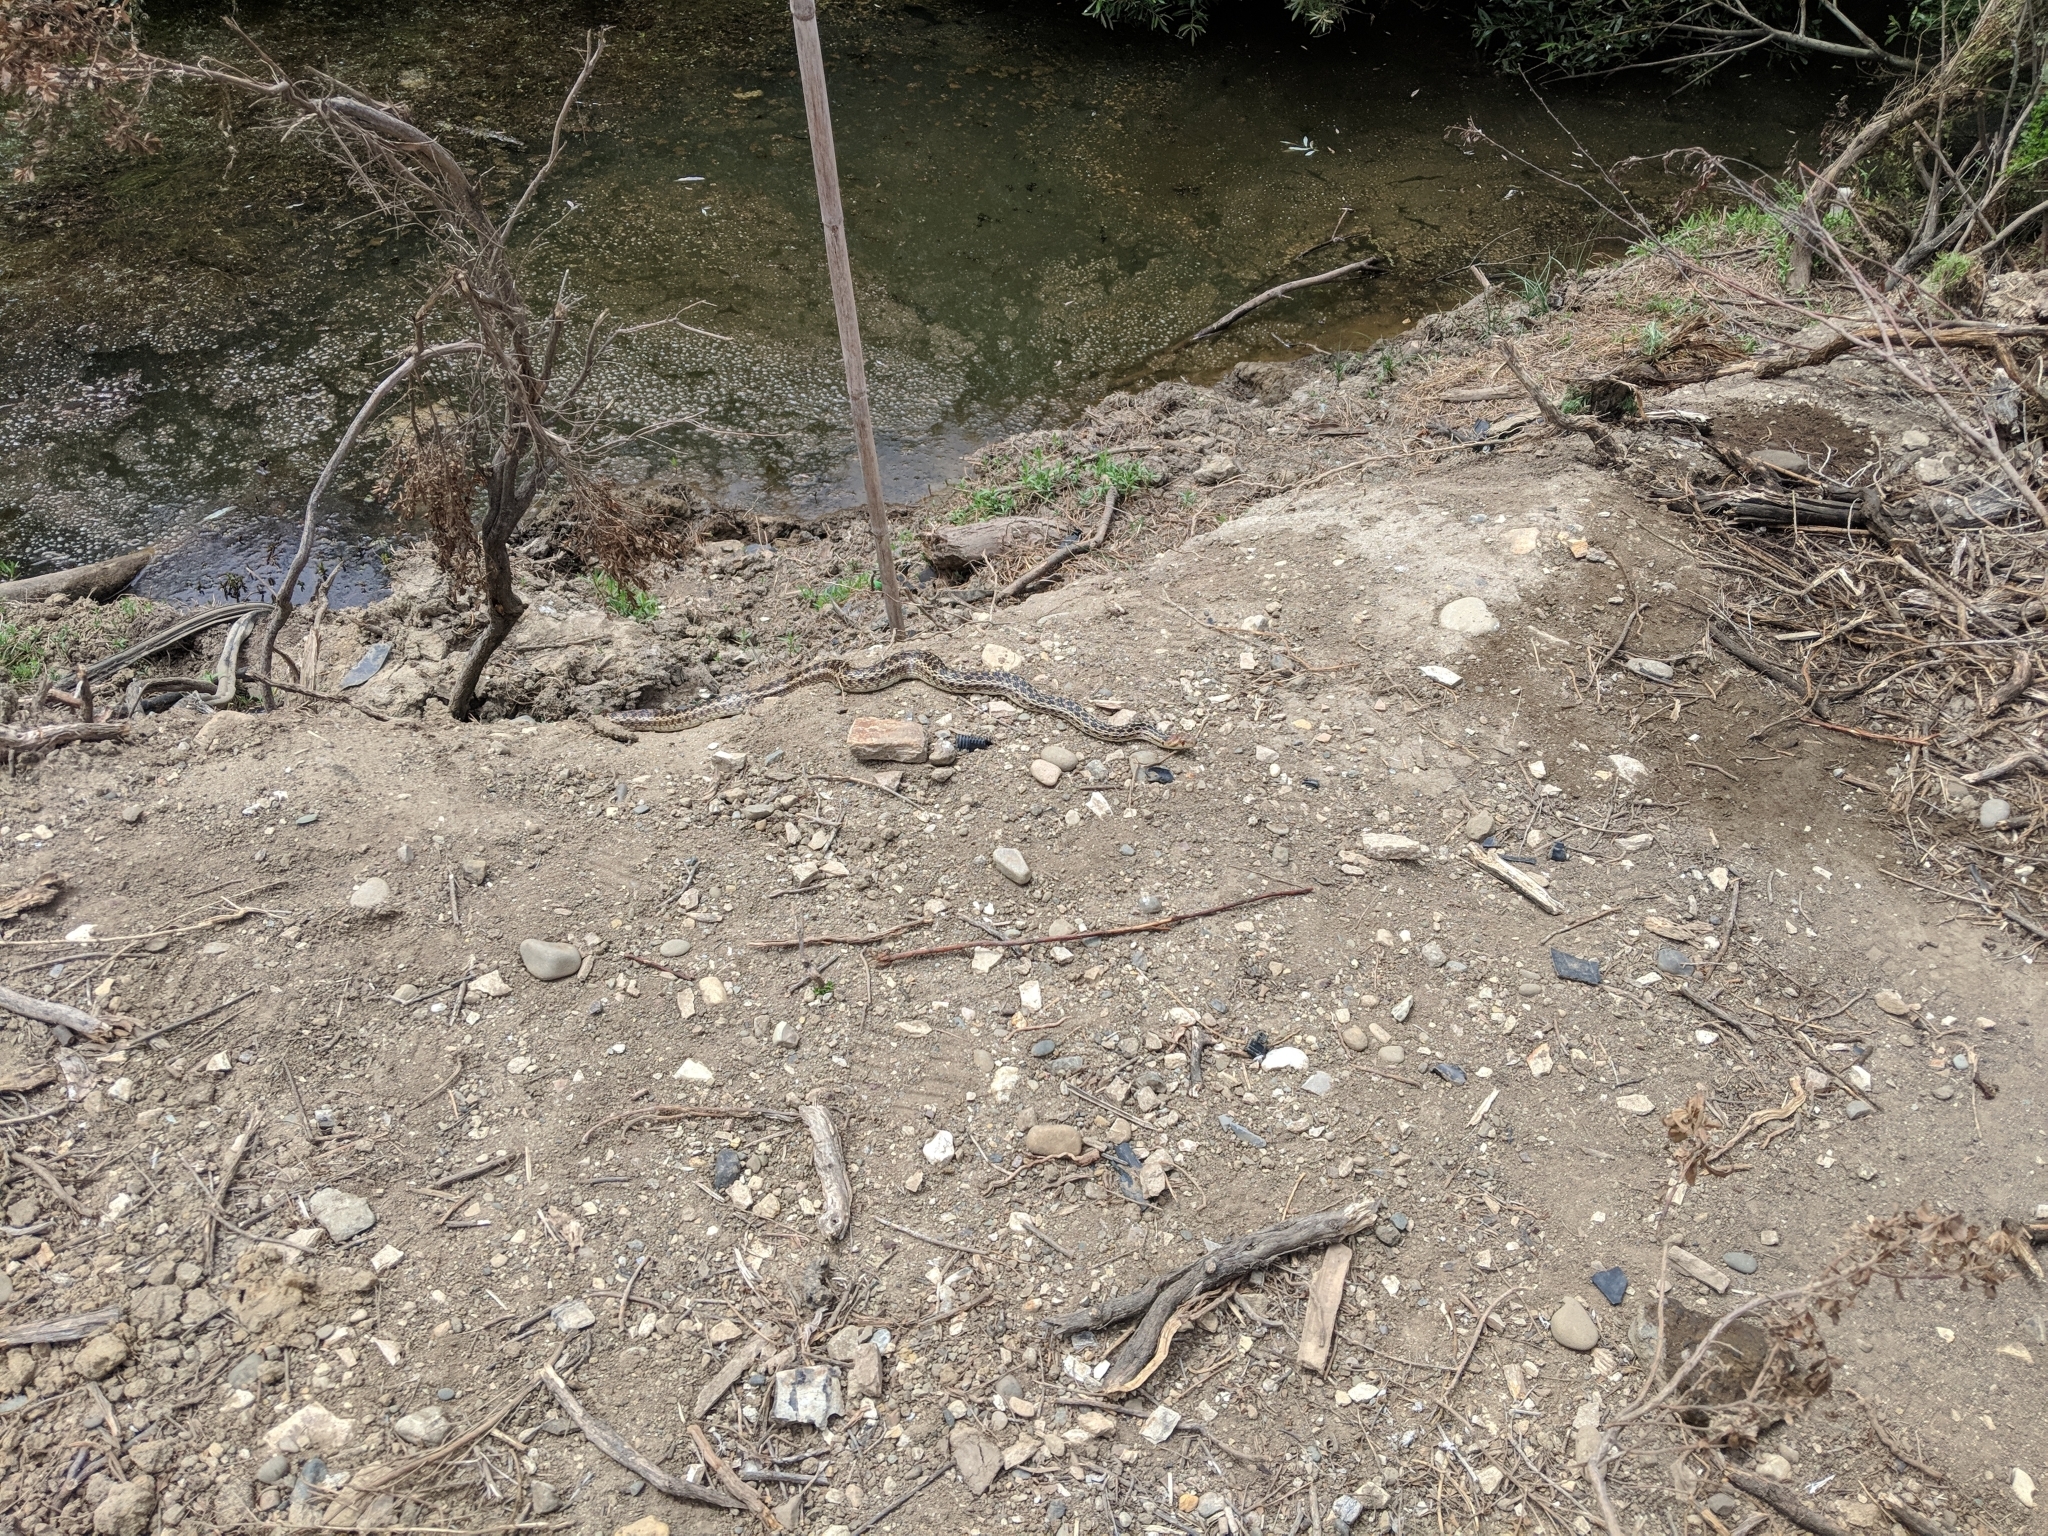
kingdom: Animalia
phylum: Chordata
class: Squamata
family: Colubridae
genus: Pituophis
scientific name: Pituophis catenifer
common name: Gopher snake
